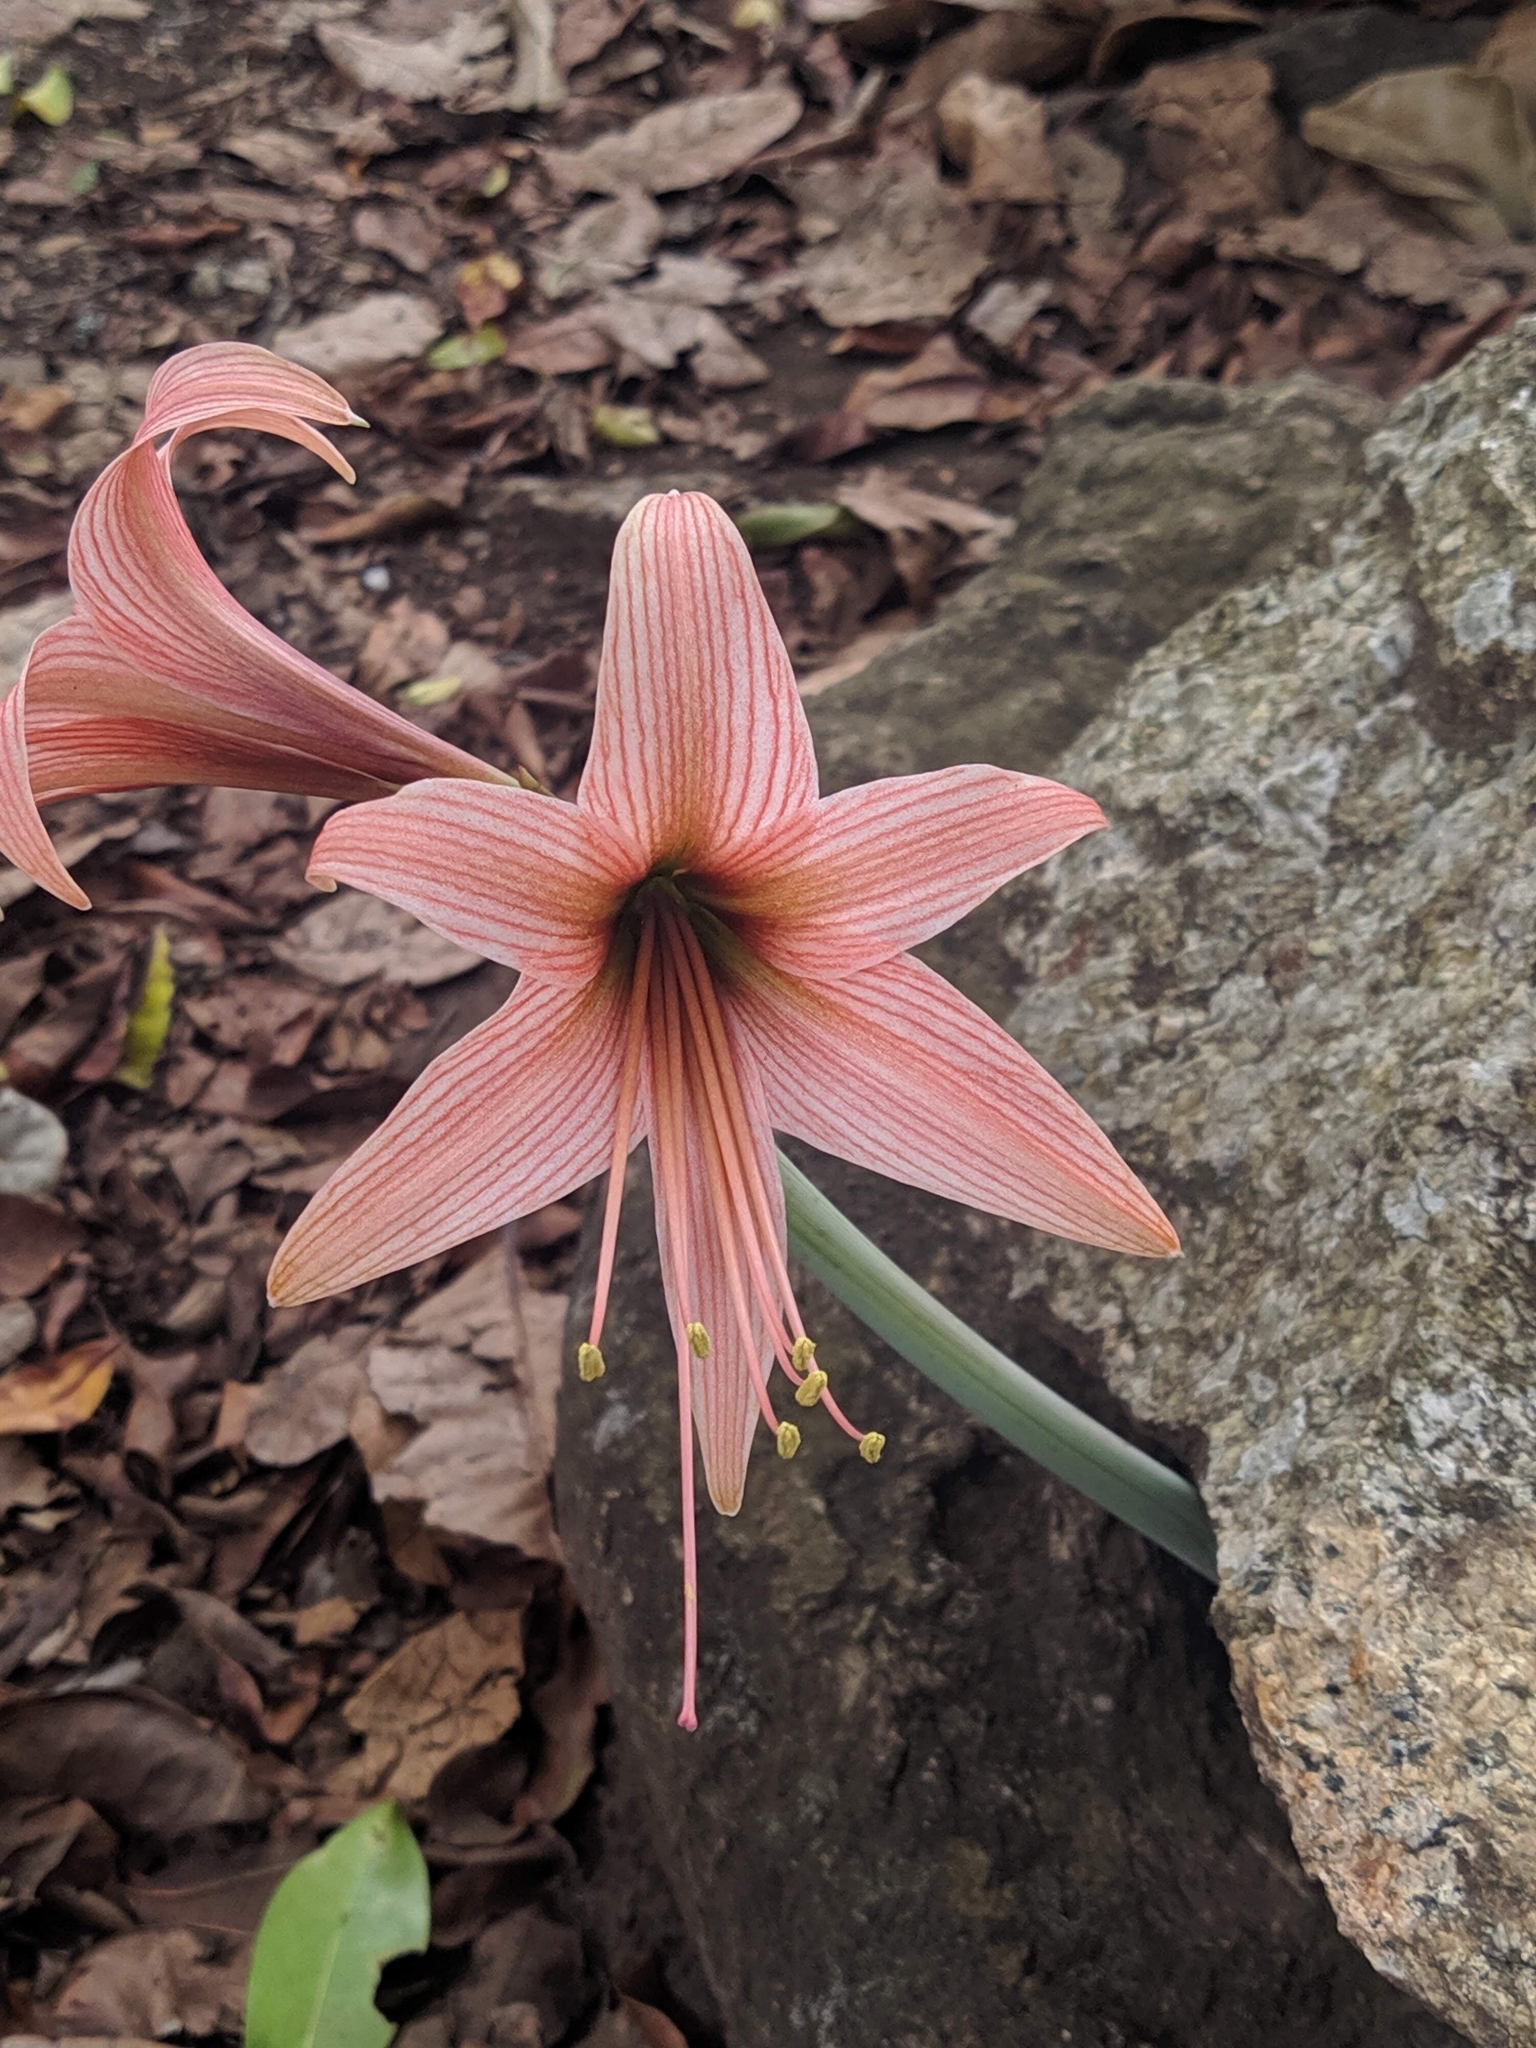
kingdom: Plantae
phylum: Tracheophyta
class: Liliopsida
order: Asparagales
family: Amaryllidaceae
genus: Hippeastrum
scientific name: Hippeastrum stylosum
